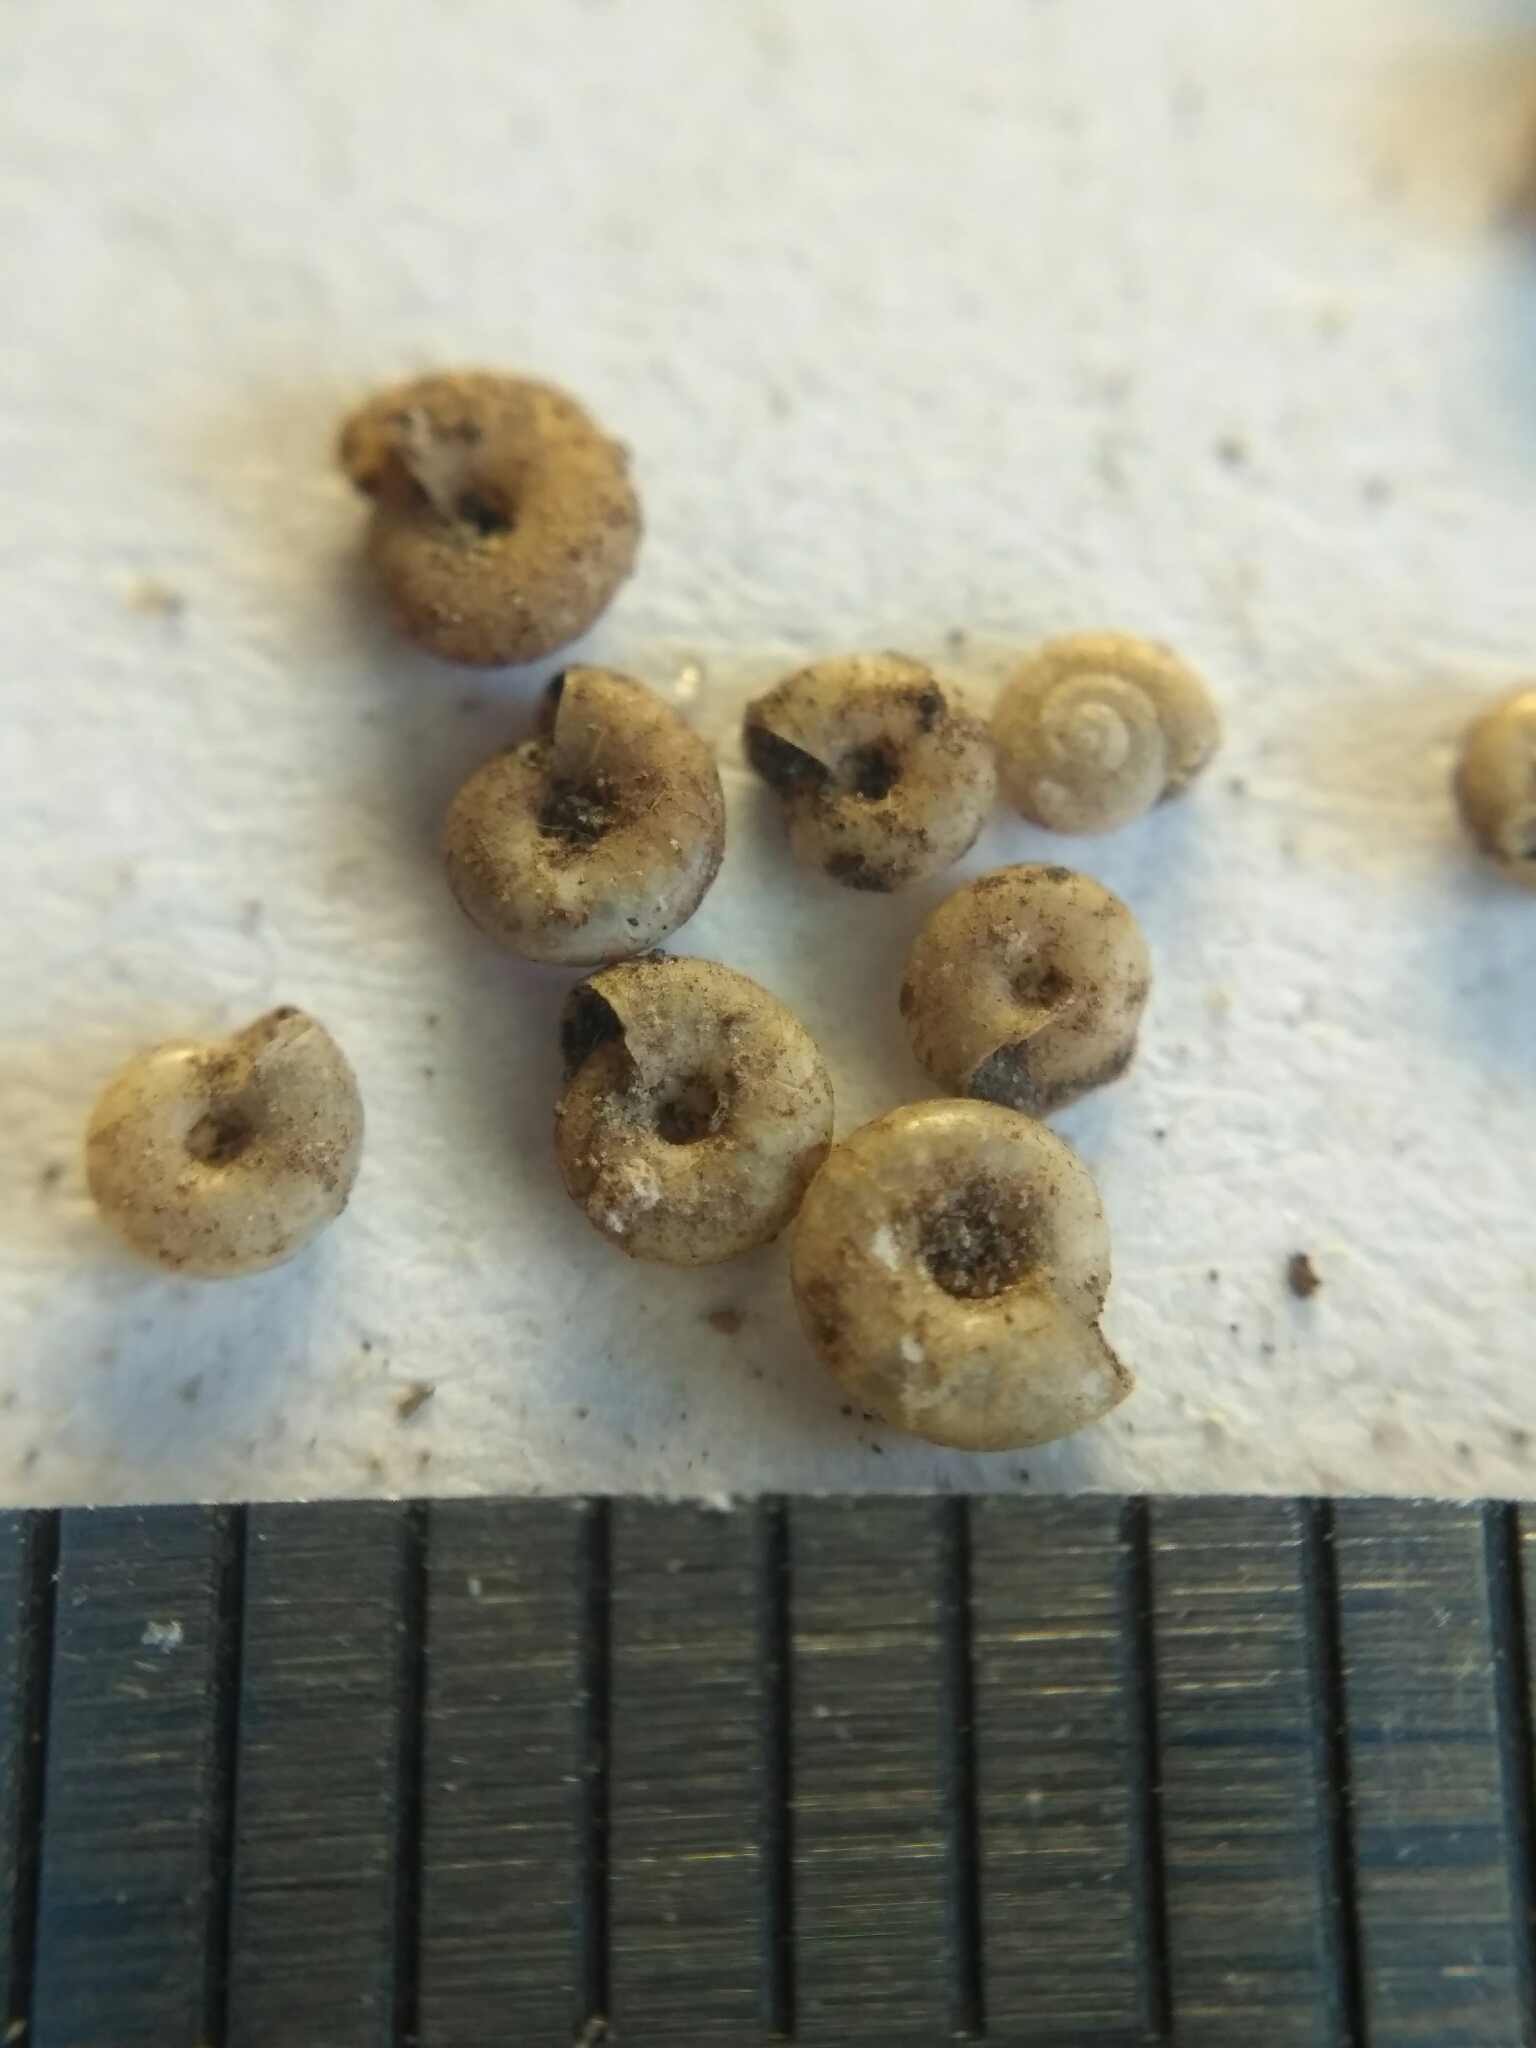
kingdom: Animalia
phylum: Mollusca
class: Gastropoda
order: Stylommatophora
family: Pristilomatidae
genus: Vitrea
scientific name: Vitrea pygmaea
